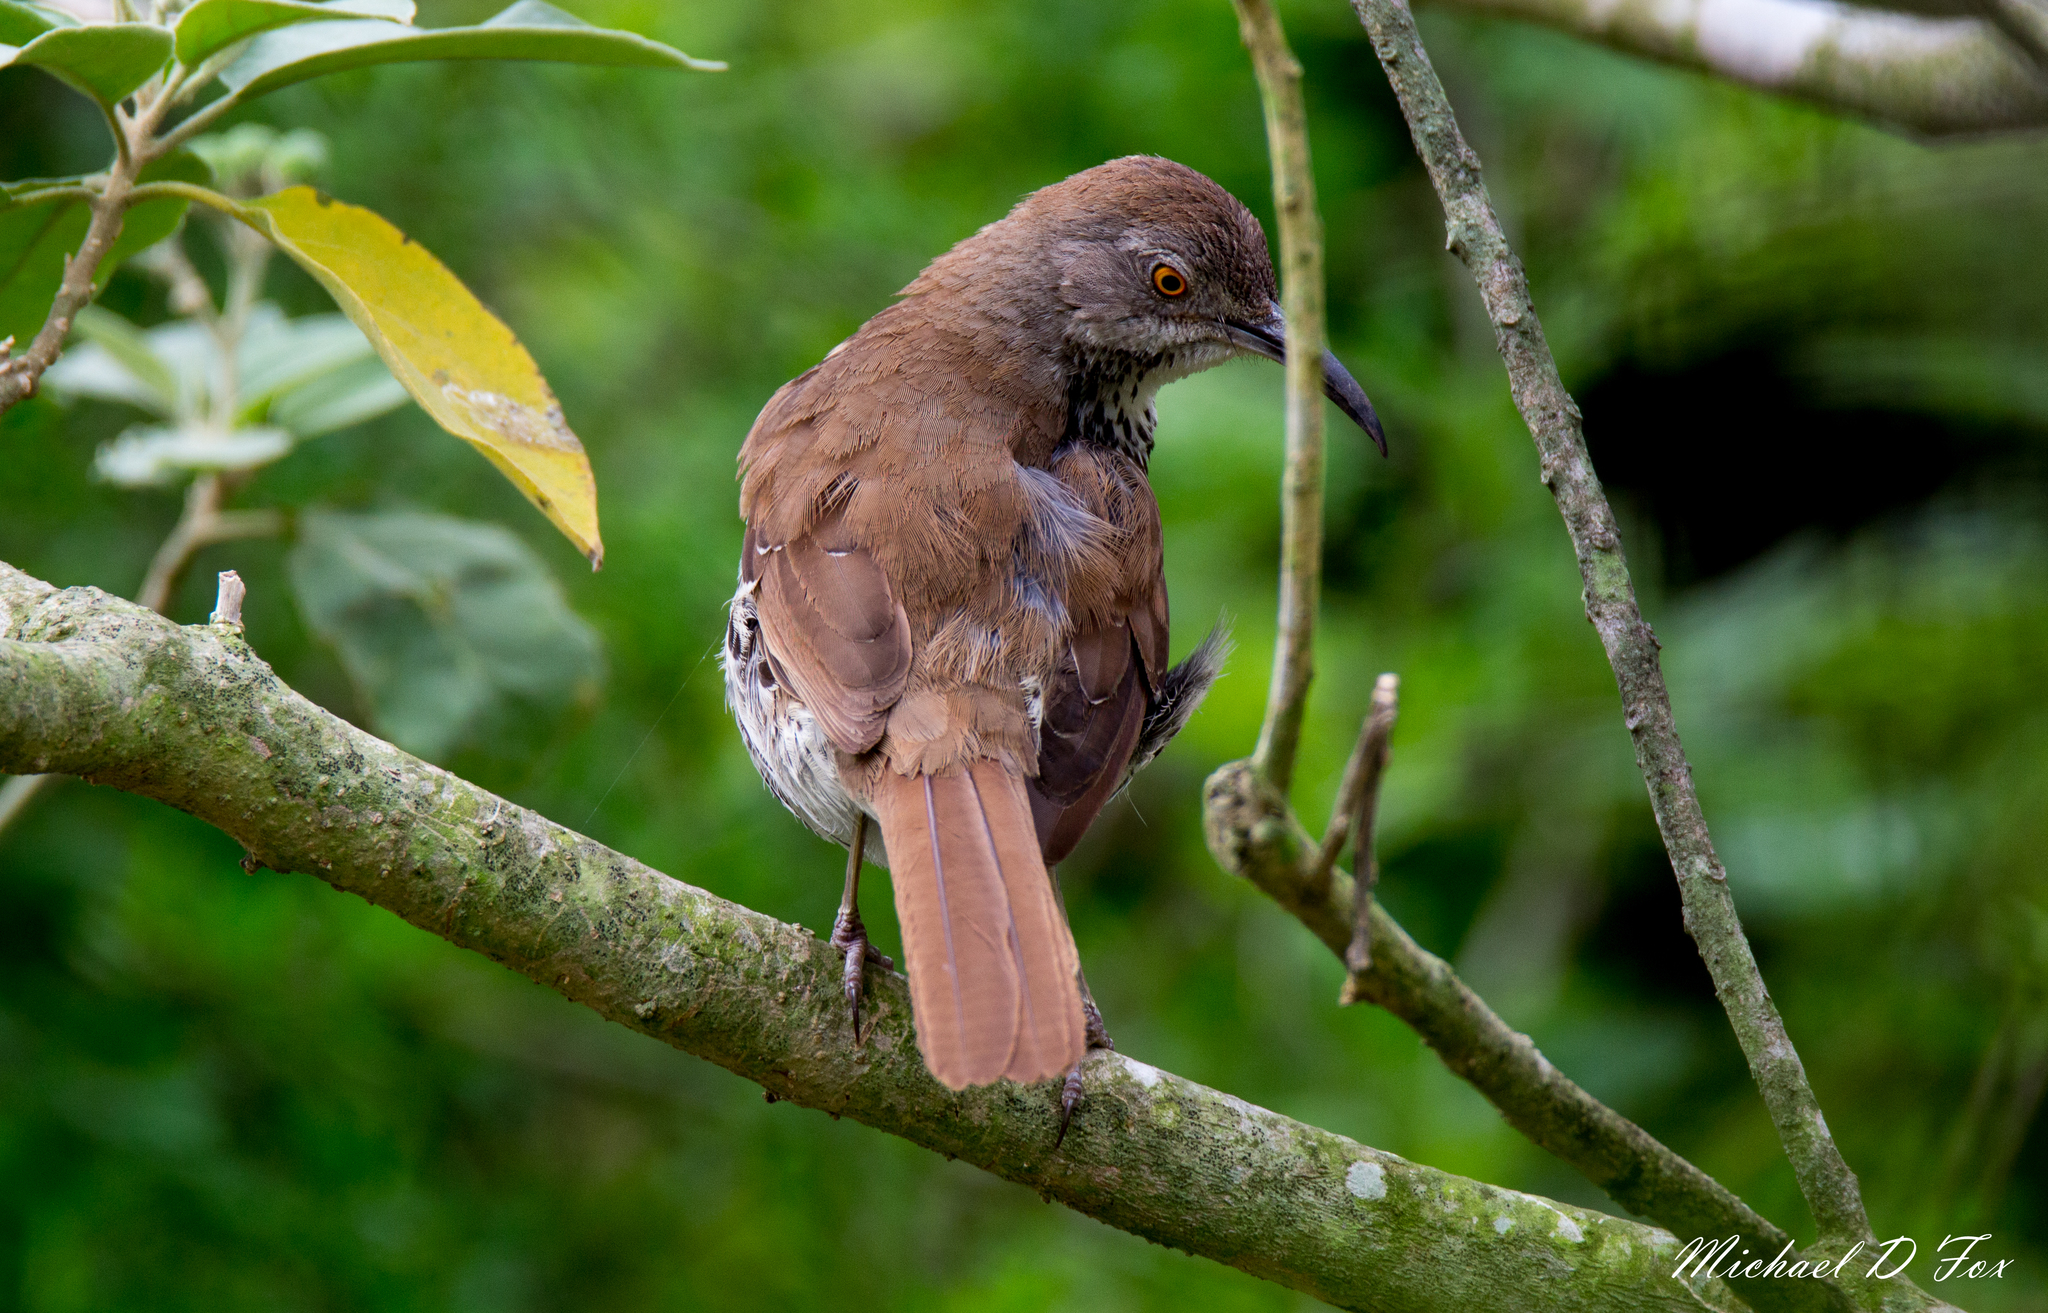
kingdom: Animalia
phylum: Chordata
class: Aves
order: Passeriformes
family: Mimidae
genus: Toxostoma
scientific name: Toxostoma longirostre
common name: Long-billed thrasher
